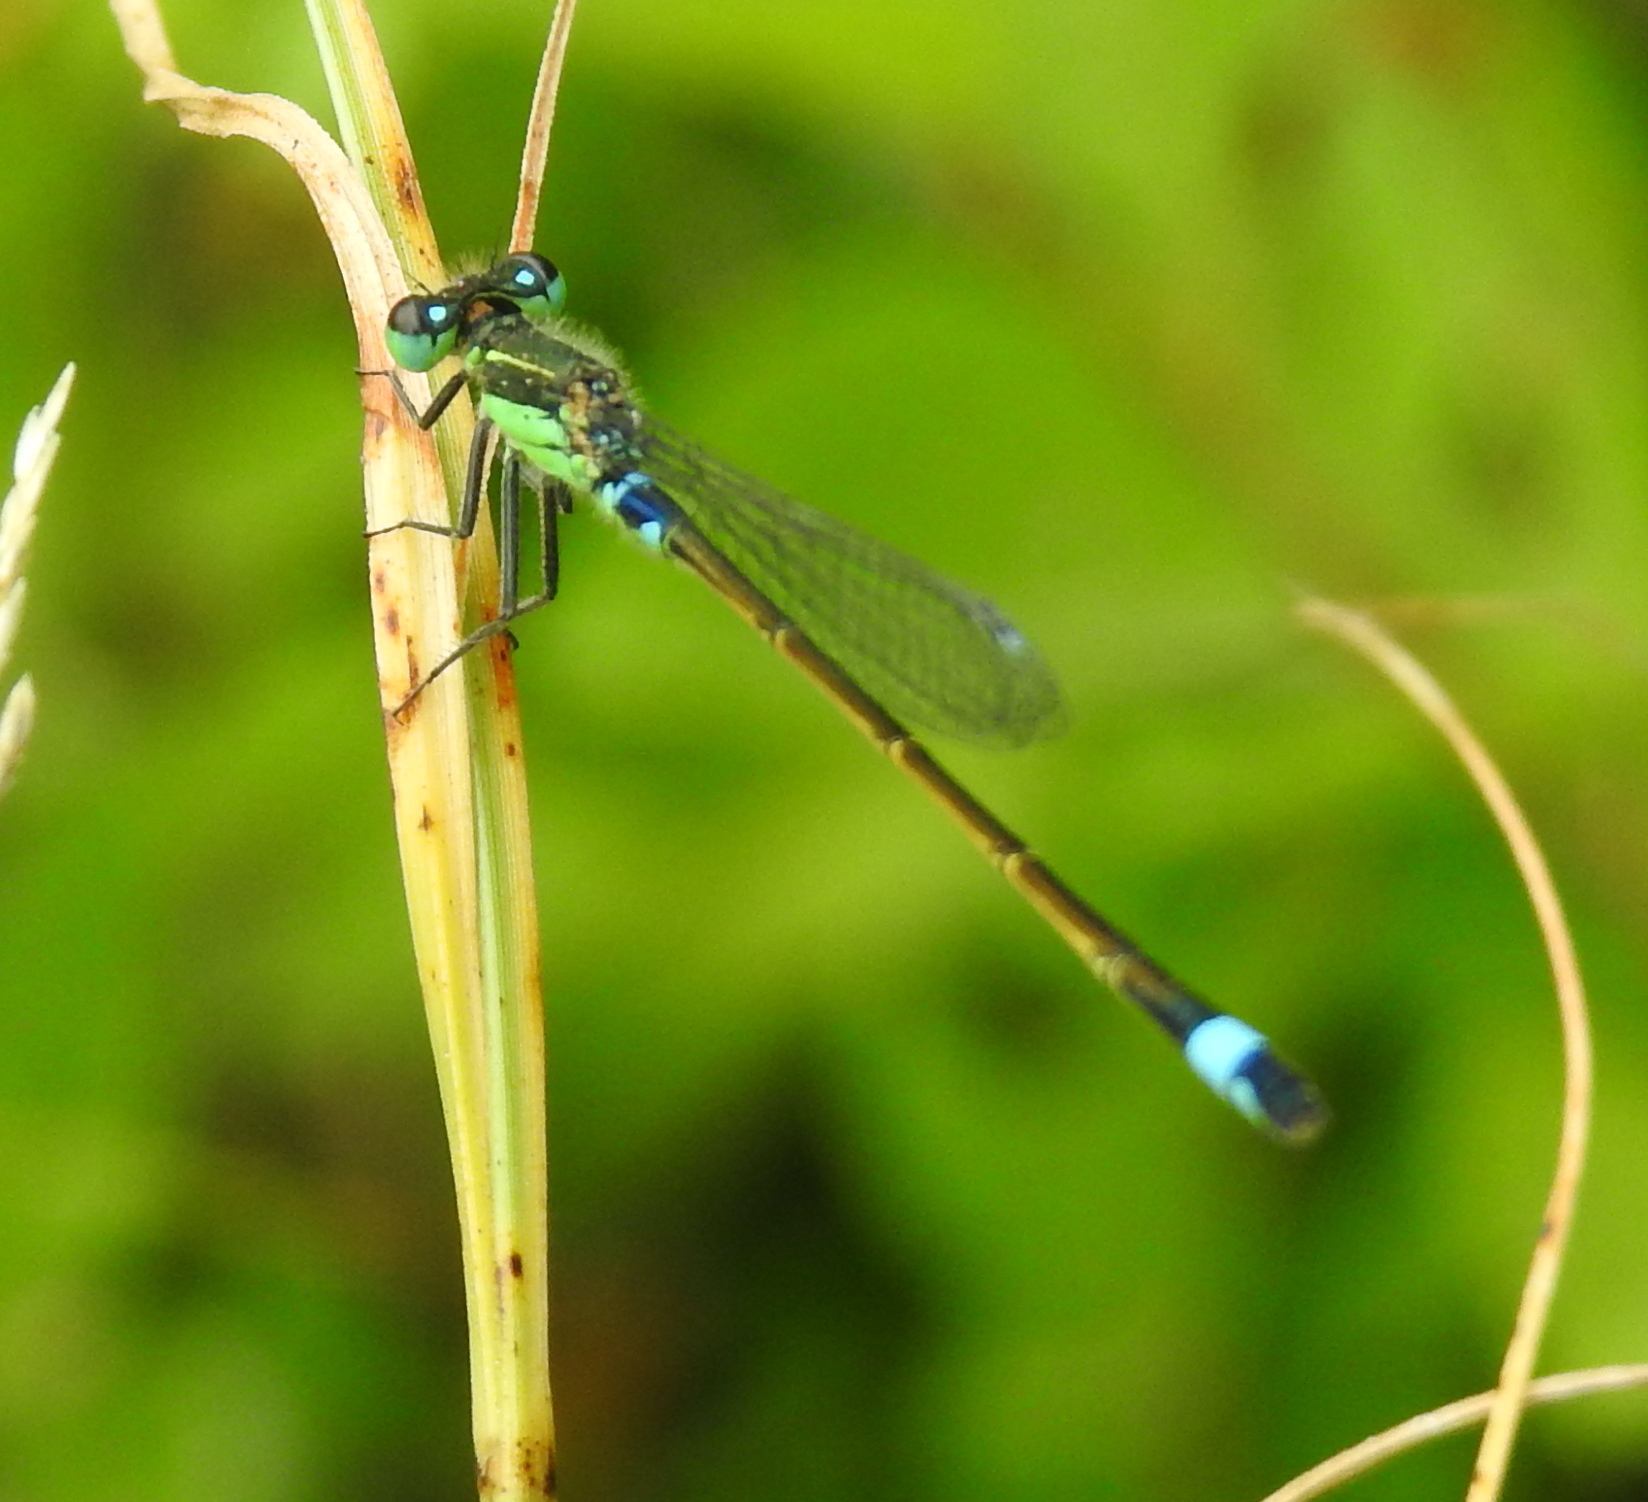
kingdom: Animalia
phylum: Arthropoda
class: Insecta
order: Odonata
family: Coenagrionidae
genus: Ischnura
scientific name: Ischnura senegalensis
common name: Tropical bluetail
